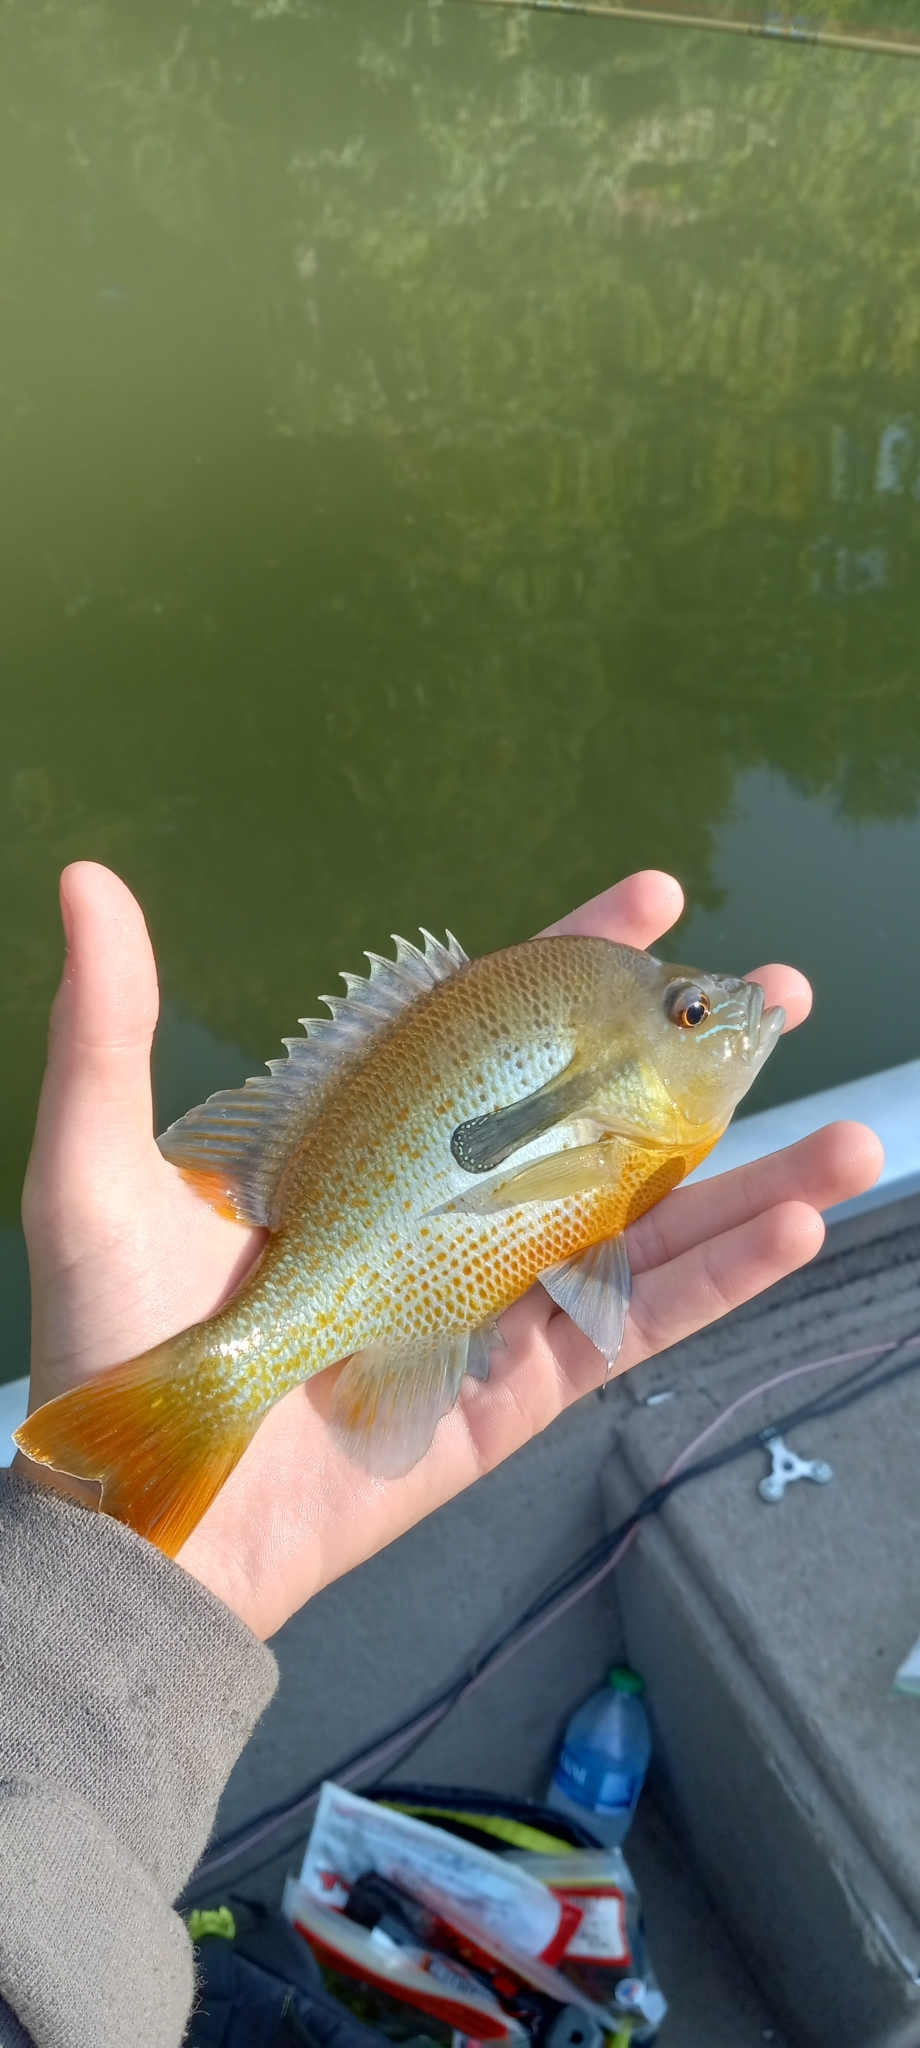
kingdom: Animalia
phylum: Chordata
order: Perciformes
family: Centrarchidae
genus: Lepomis
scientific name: Lepomis auritus
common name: Redbreast sunfish
